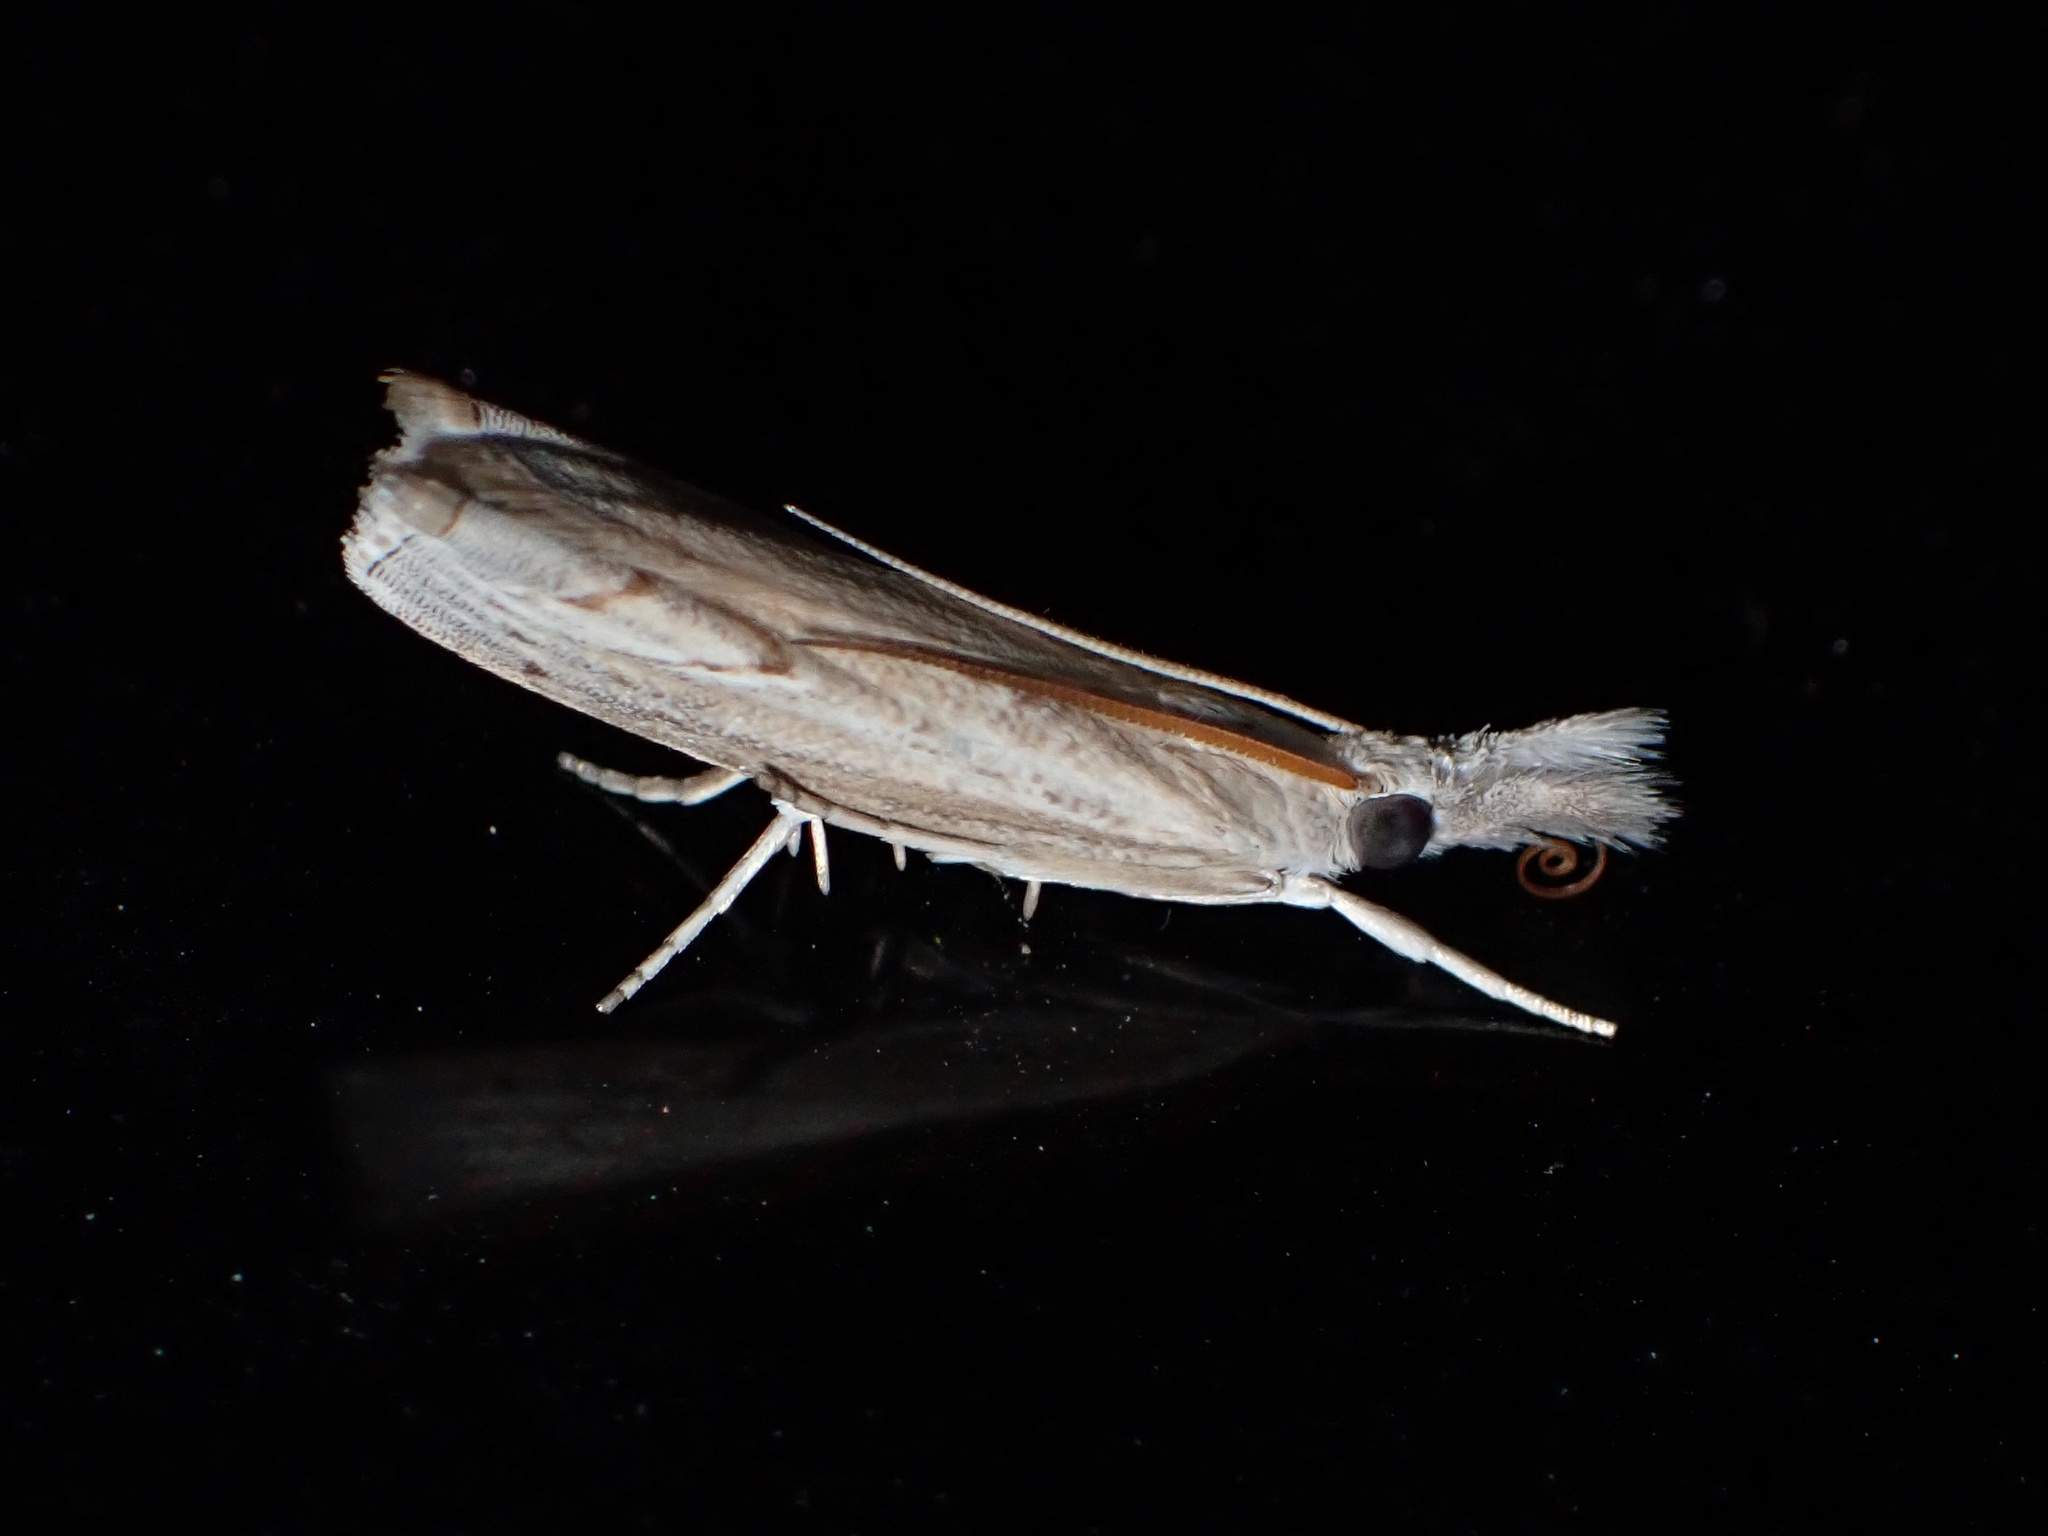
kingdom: Animalia
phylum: Arthropoda
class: Insecta
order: Lepidoptera
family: Crambidae
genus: Culladia
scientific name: Culladia cuneiferellus
